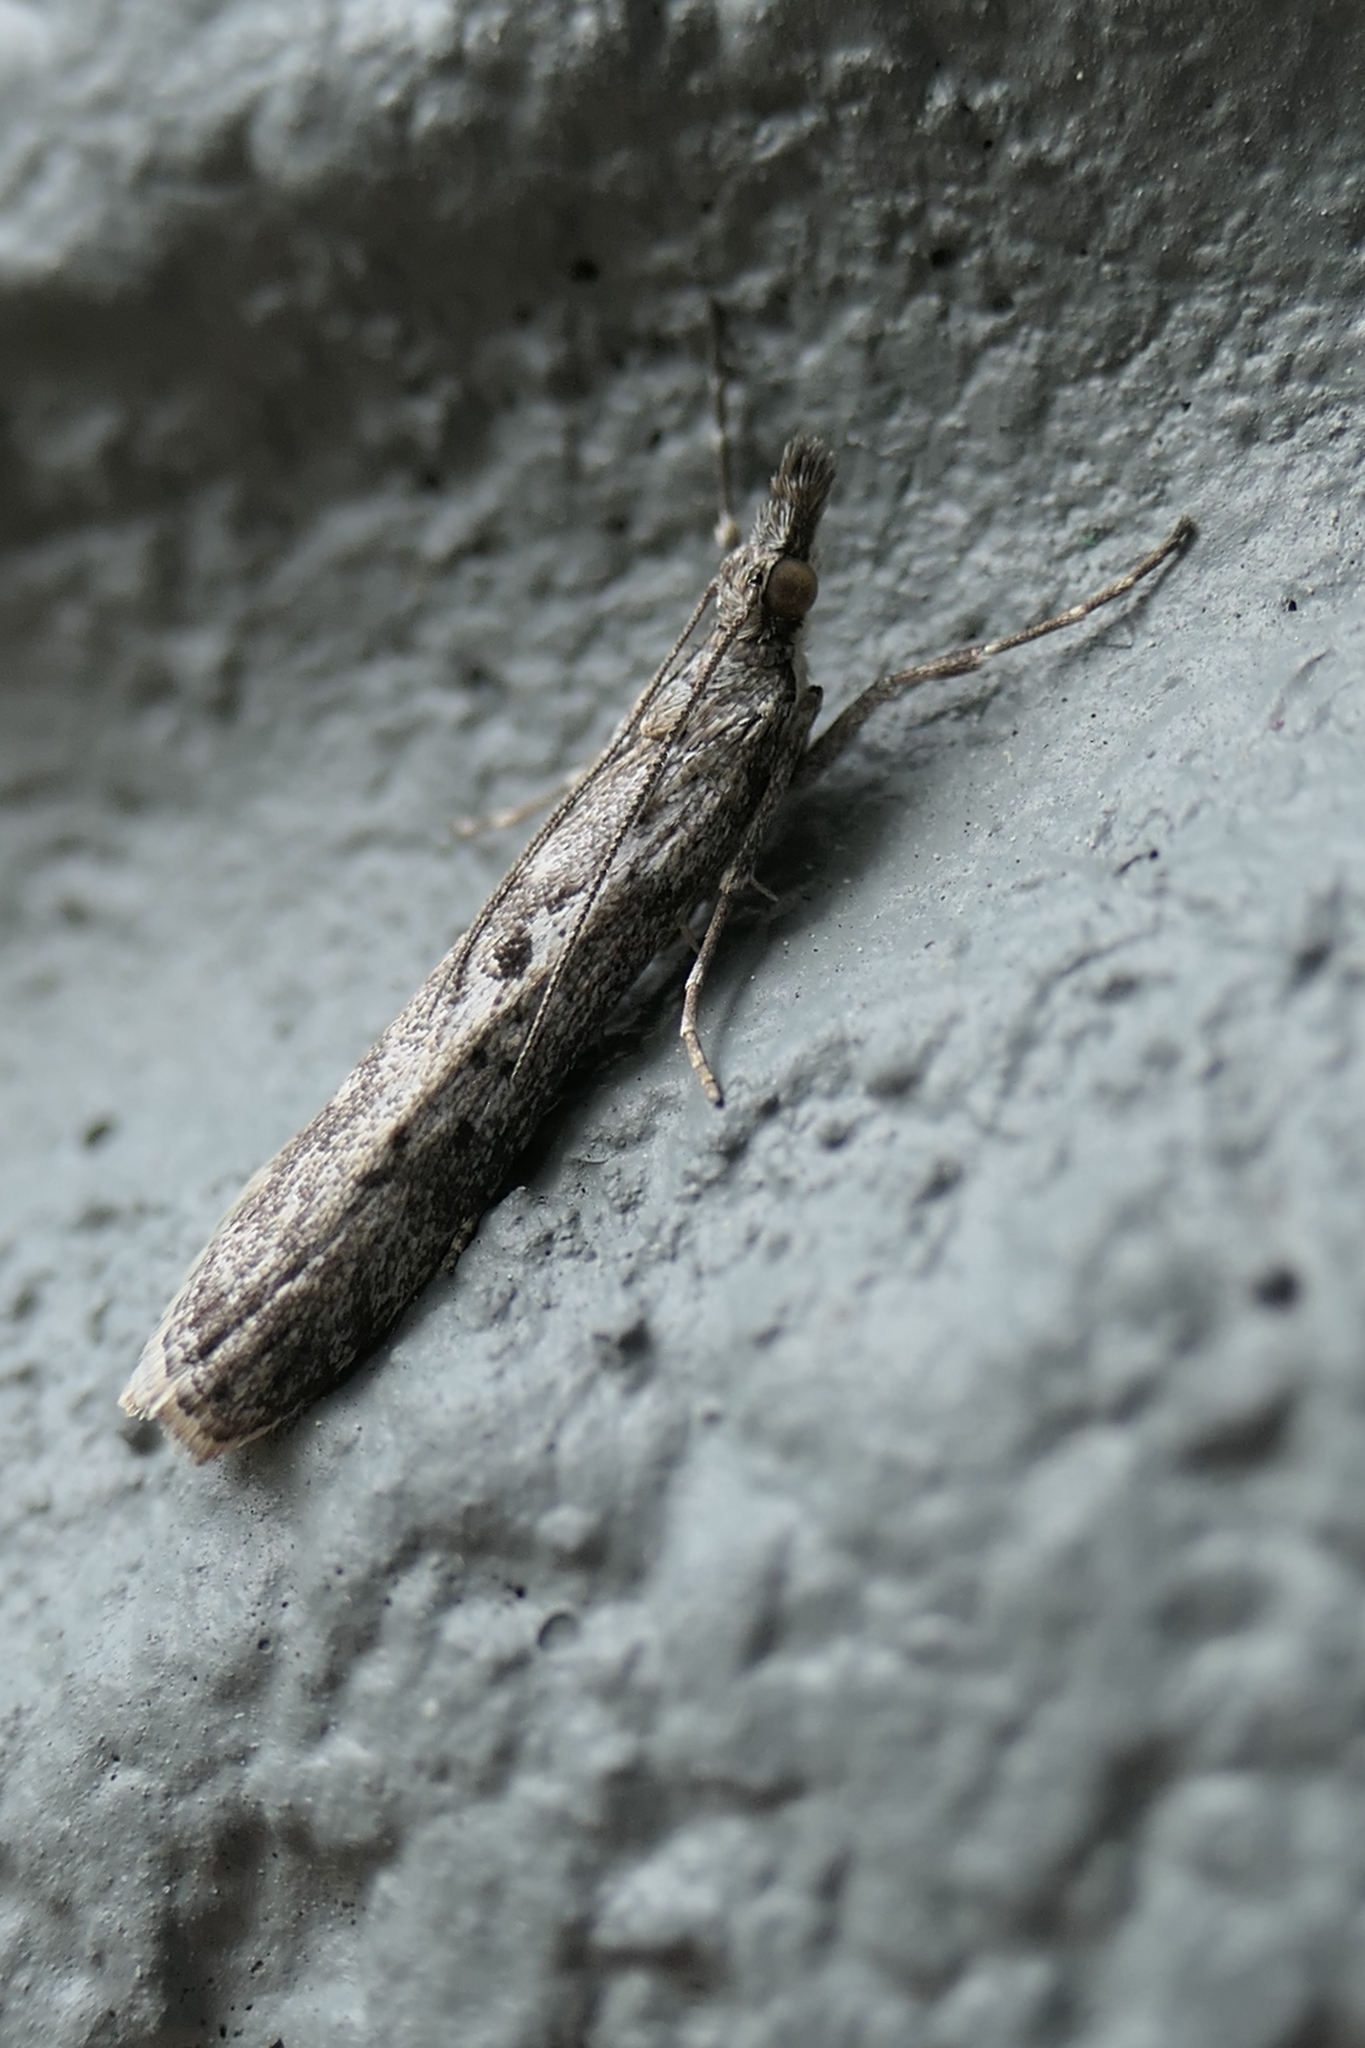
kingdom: Animalia
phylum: Arthropoda
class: Insecta
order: Lepidoptera
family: Crambidae
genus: Eudonia
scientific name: Eudonia leptalea
